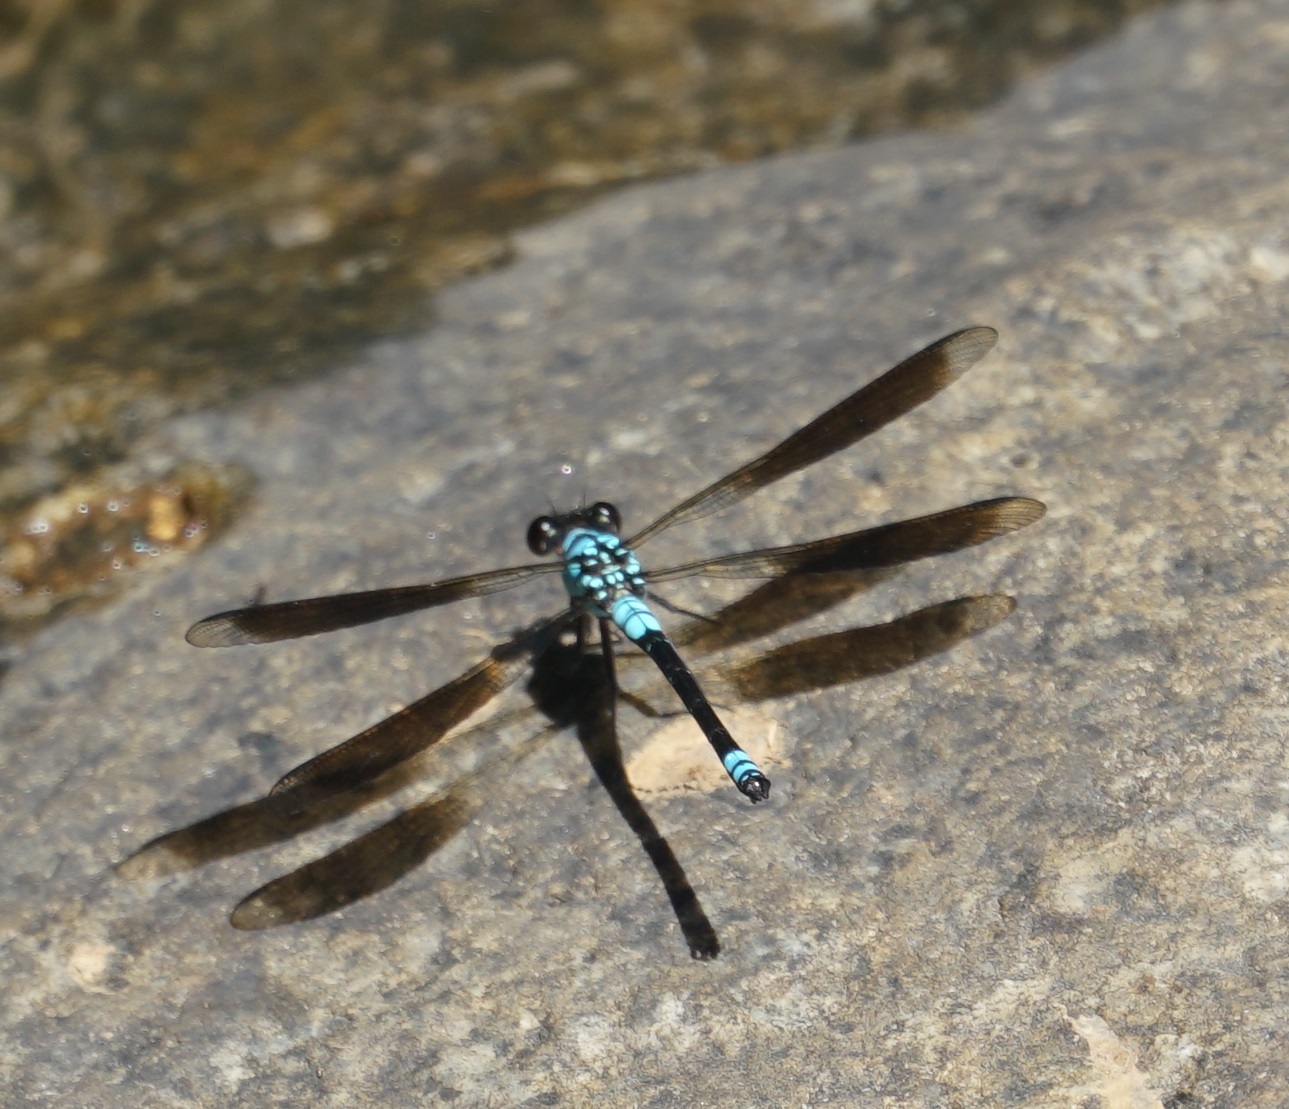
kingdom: Animalia
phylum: Arthropoda
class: Insecta
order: Odonata
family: Lestoideidae
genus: Diphlebia
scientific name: Diphlebia euphoeoides
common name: Tropical rockmaster
